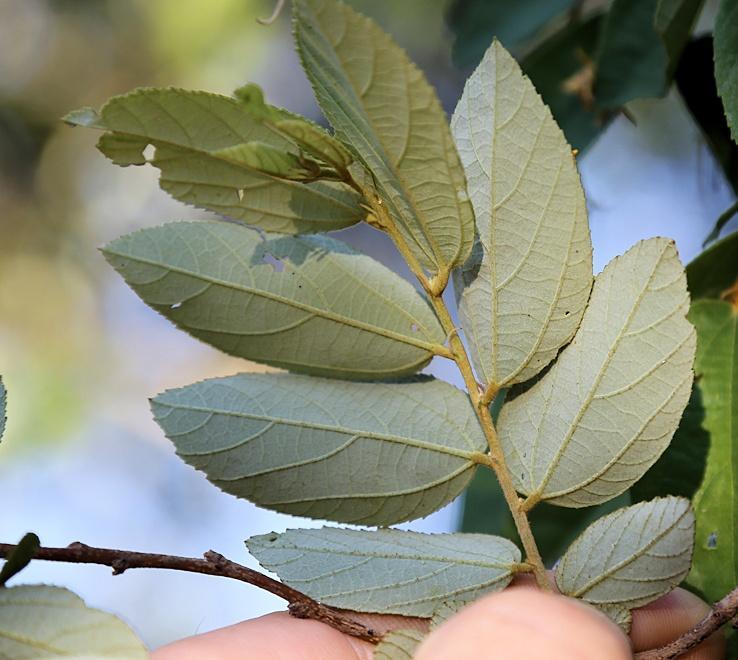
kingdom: Plantae
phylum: Tracheophyta
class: Magnoliopsida
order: Malvales
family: Malvaceae
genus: Grewia
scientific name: Grewia monticola
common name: Grey raisin
